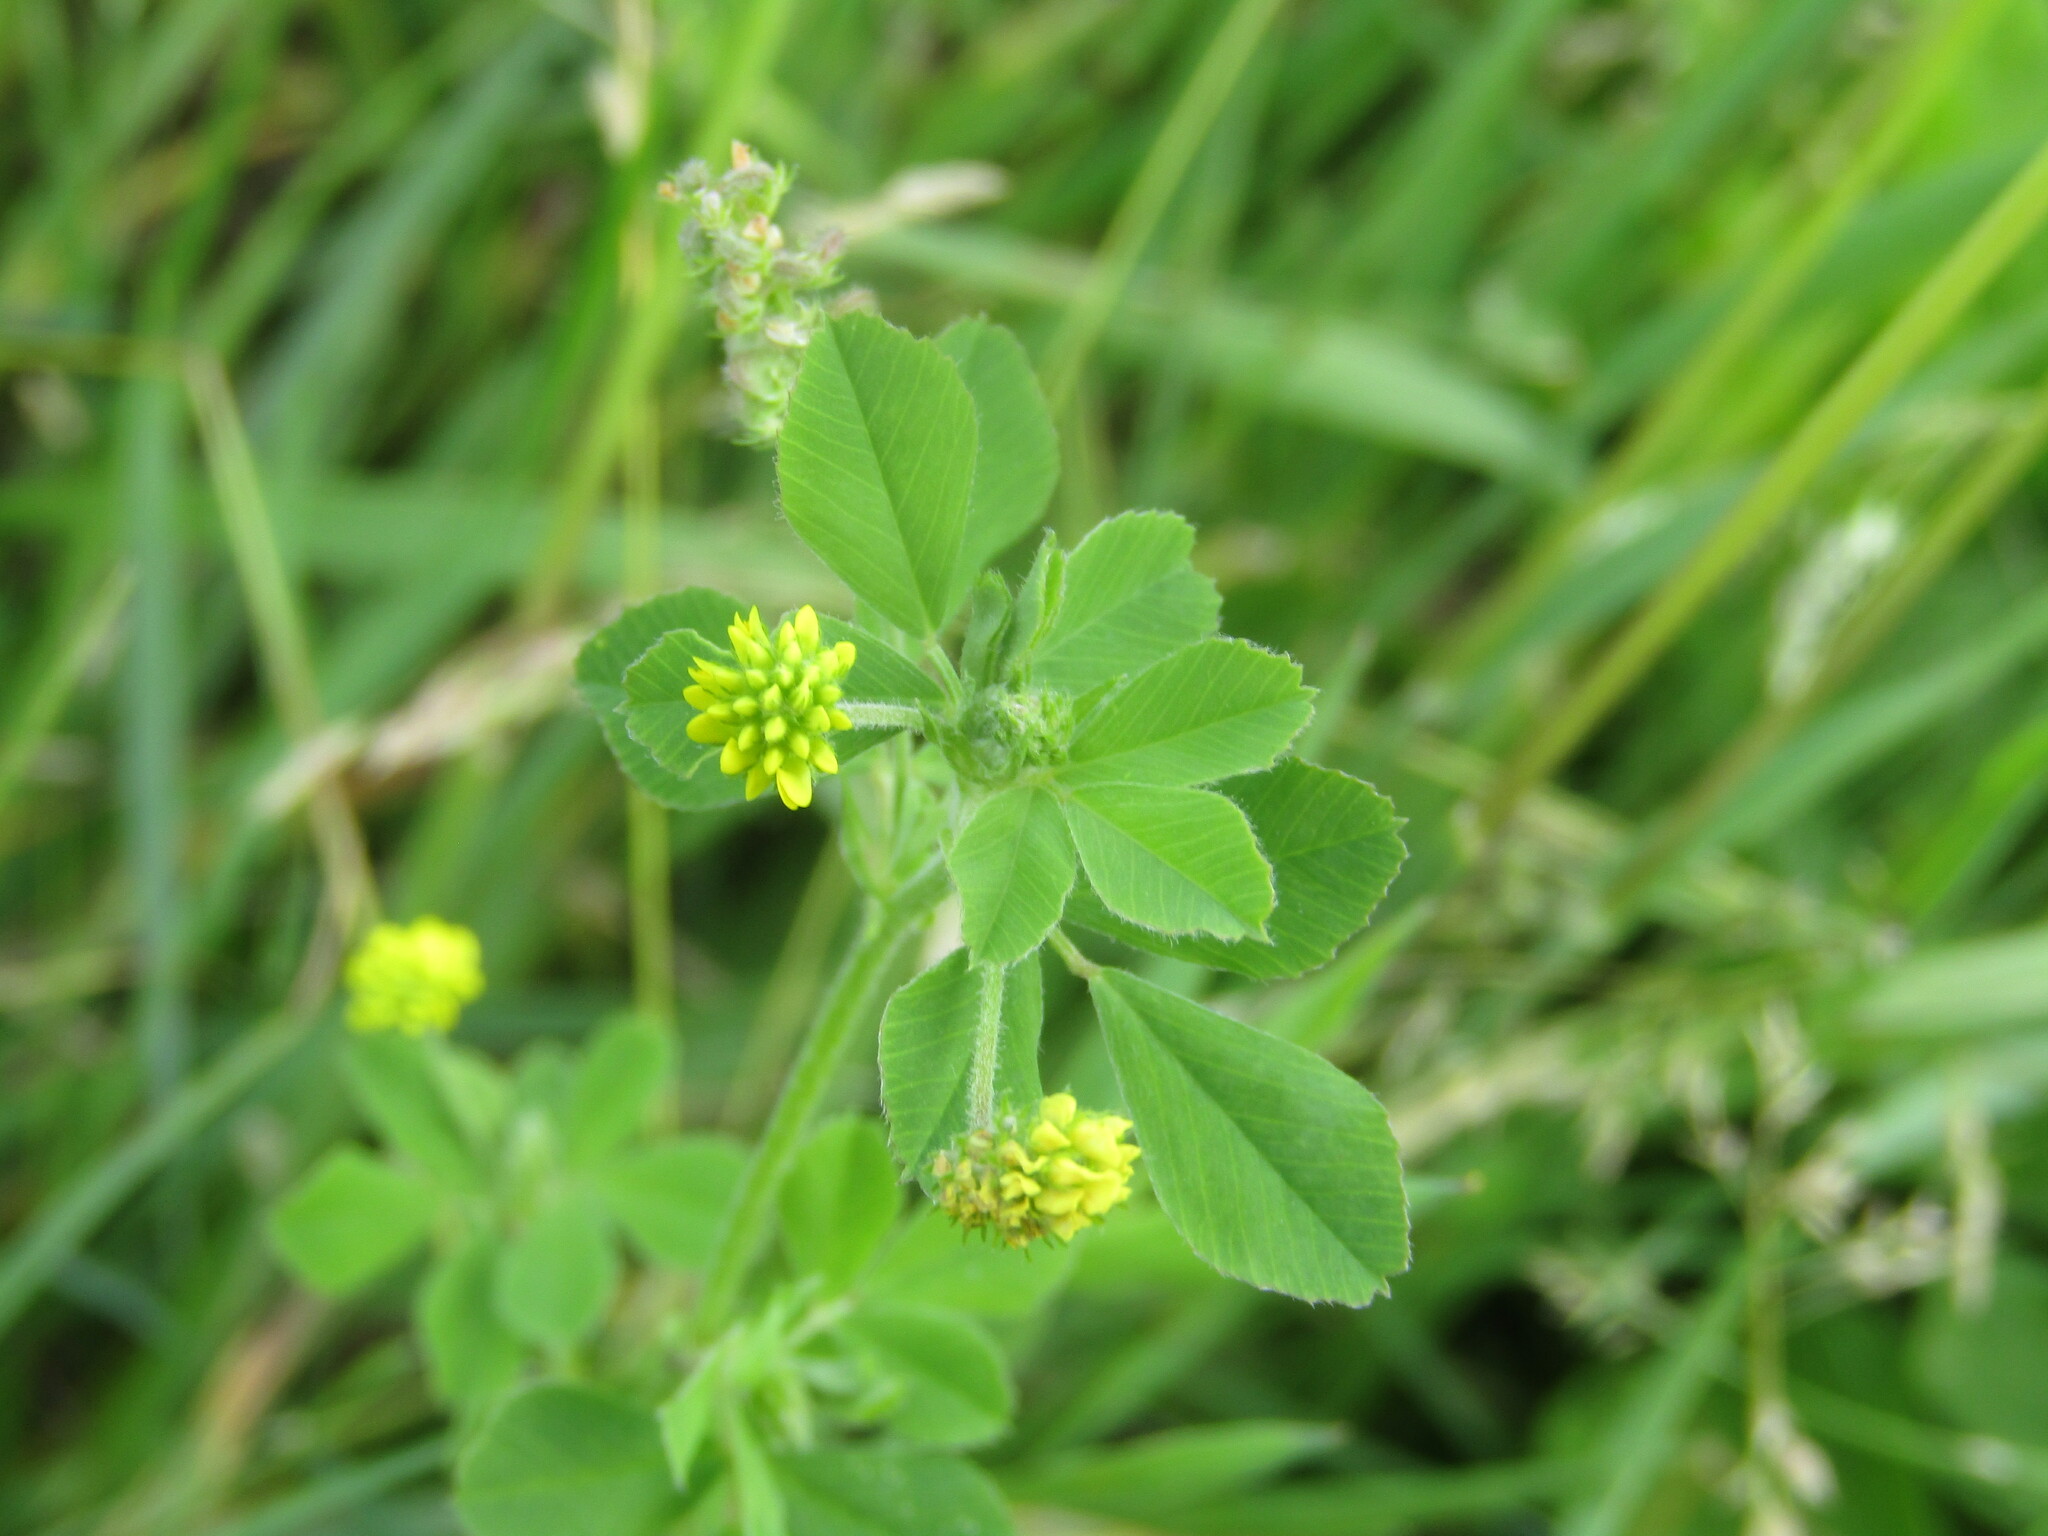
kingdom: Plantae
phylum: Tracheophyta
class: Magnoliopsida
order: Fabales
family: Fabaceae
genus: Medicago
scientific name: Medicago lupulina
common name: Black medick
